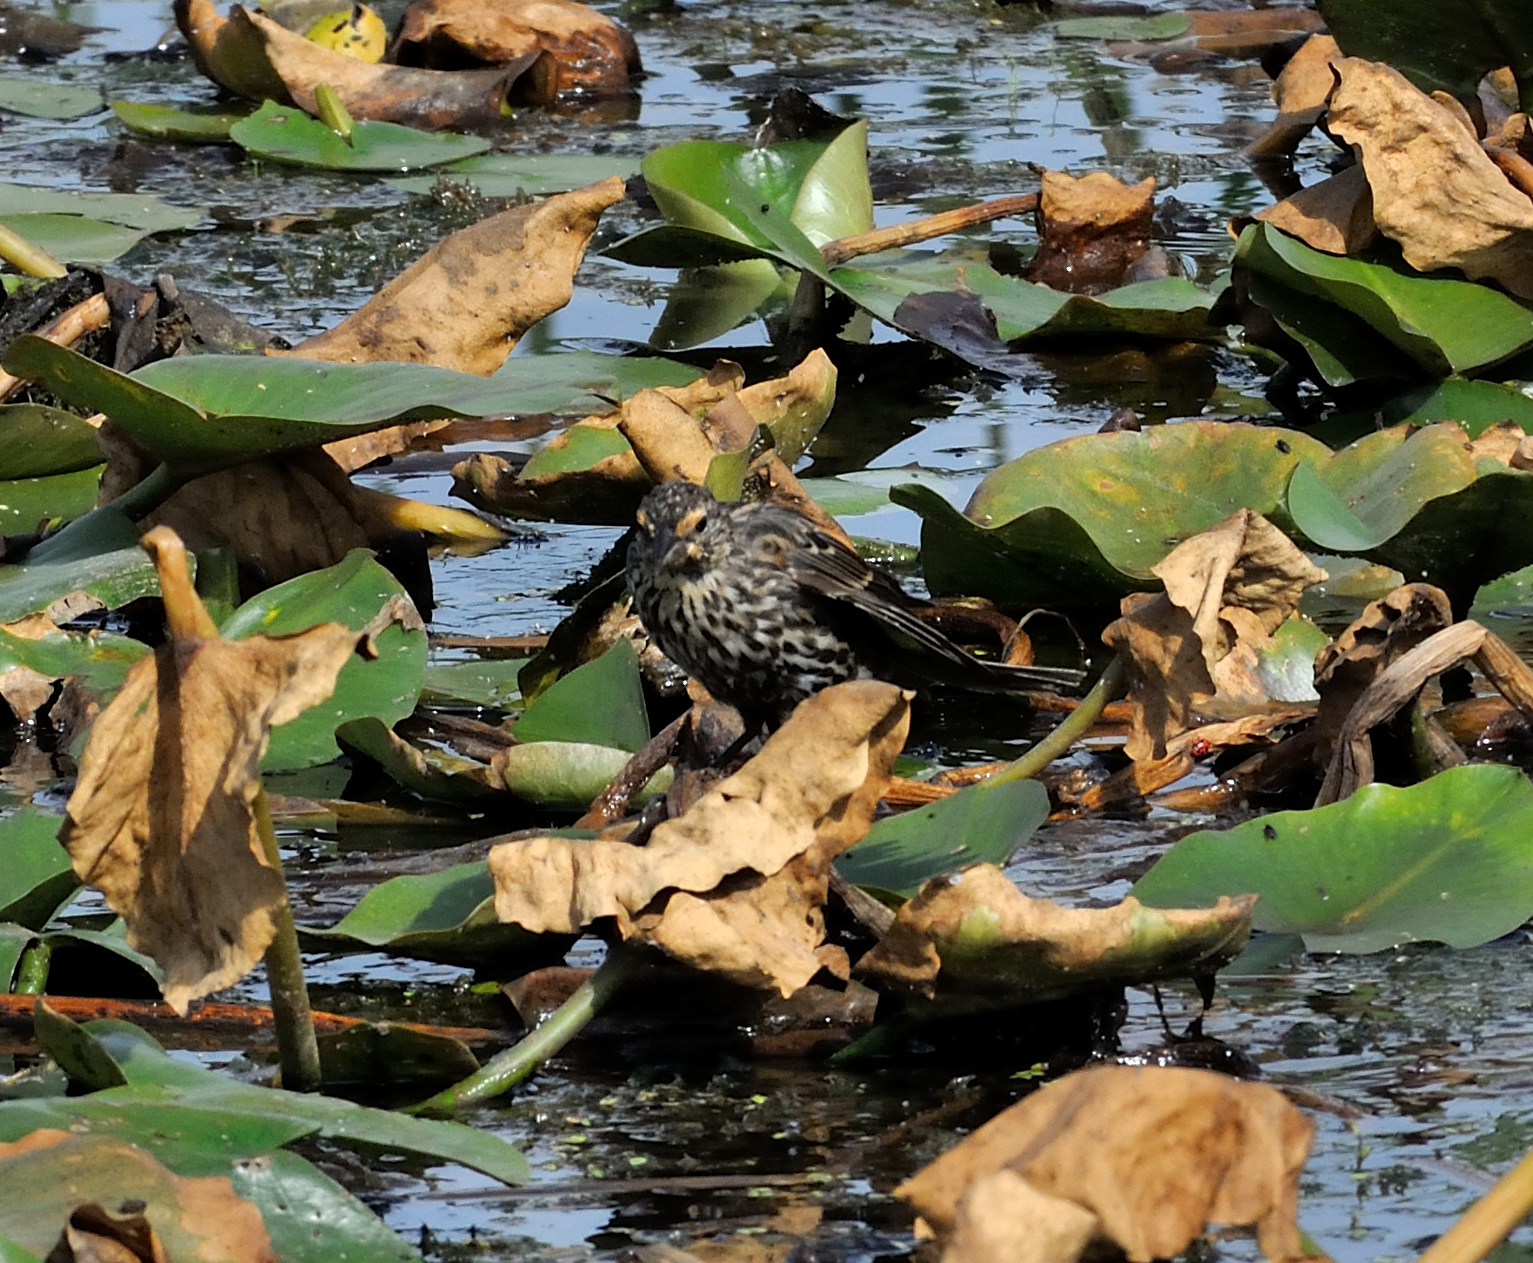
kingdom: Animalia
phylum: Chordata
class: Aves
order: Passeriformes
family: Icteridae
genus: Agelaius
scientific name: Agelaius phoeniceus
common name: Red-winged blackbird
